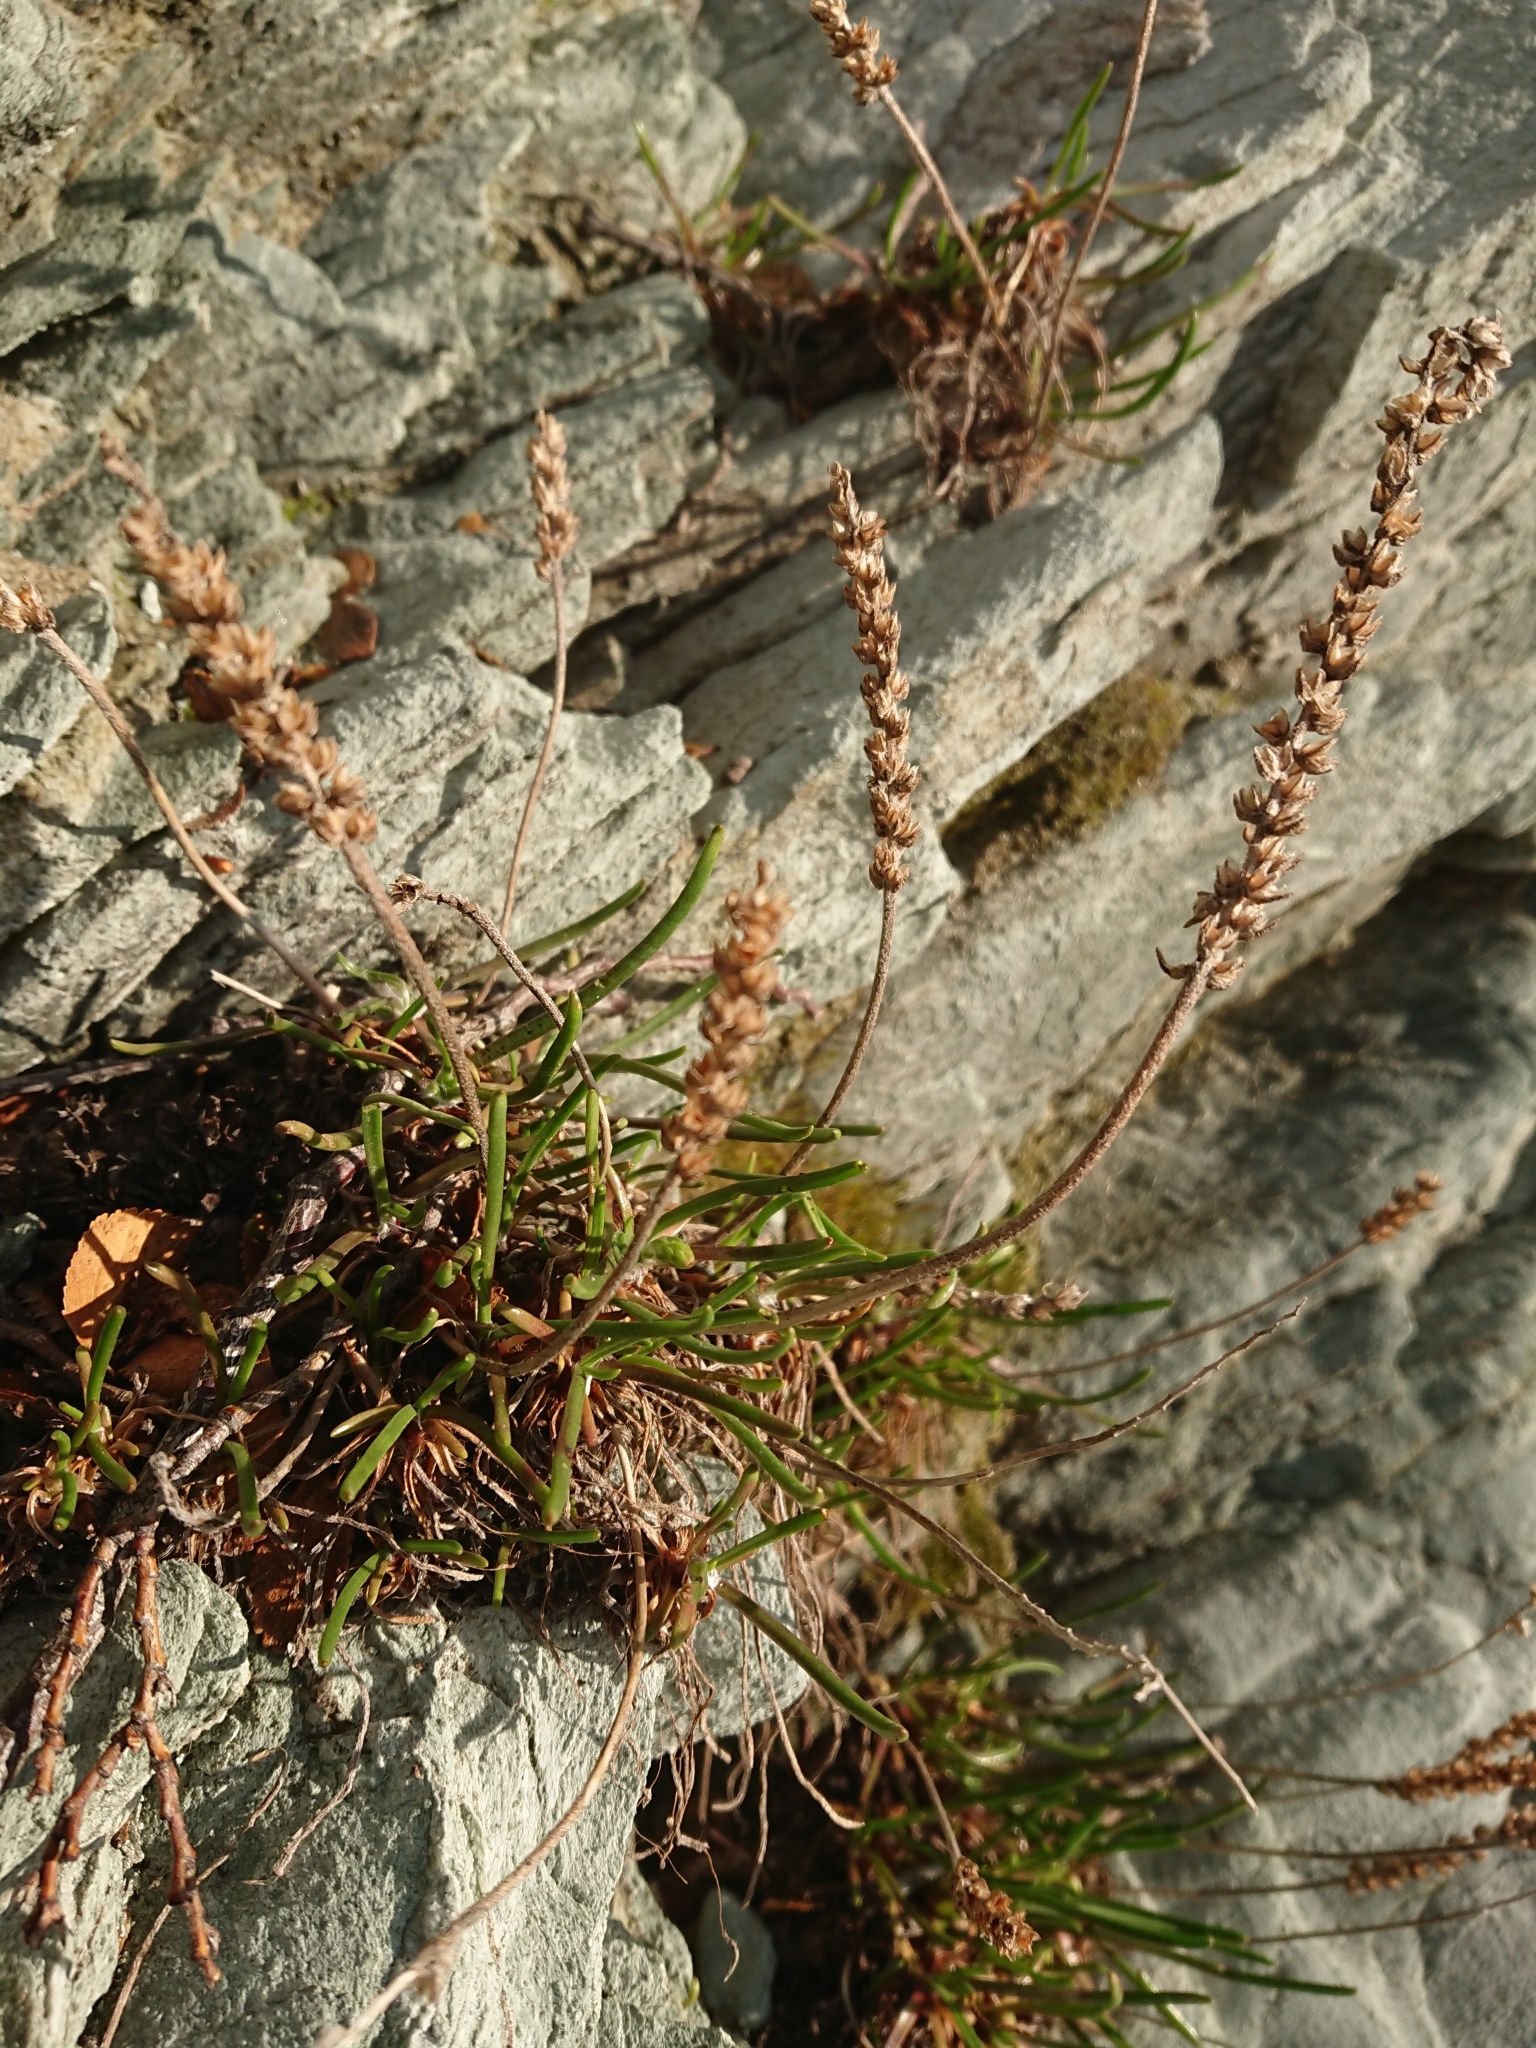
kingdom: Plantae
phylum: Tracheophyta
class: Magnoliopsida
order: Lamiales
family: Plantaginaceae
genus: Plantago
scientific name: Plantago maritima
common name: Sea plantain
